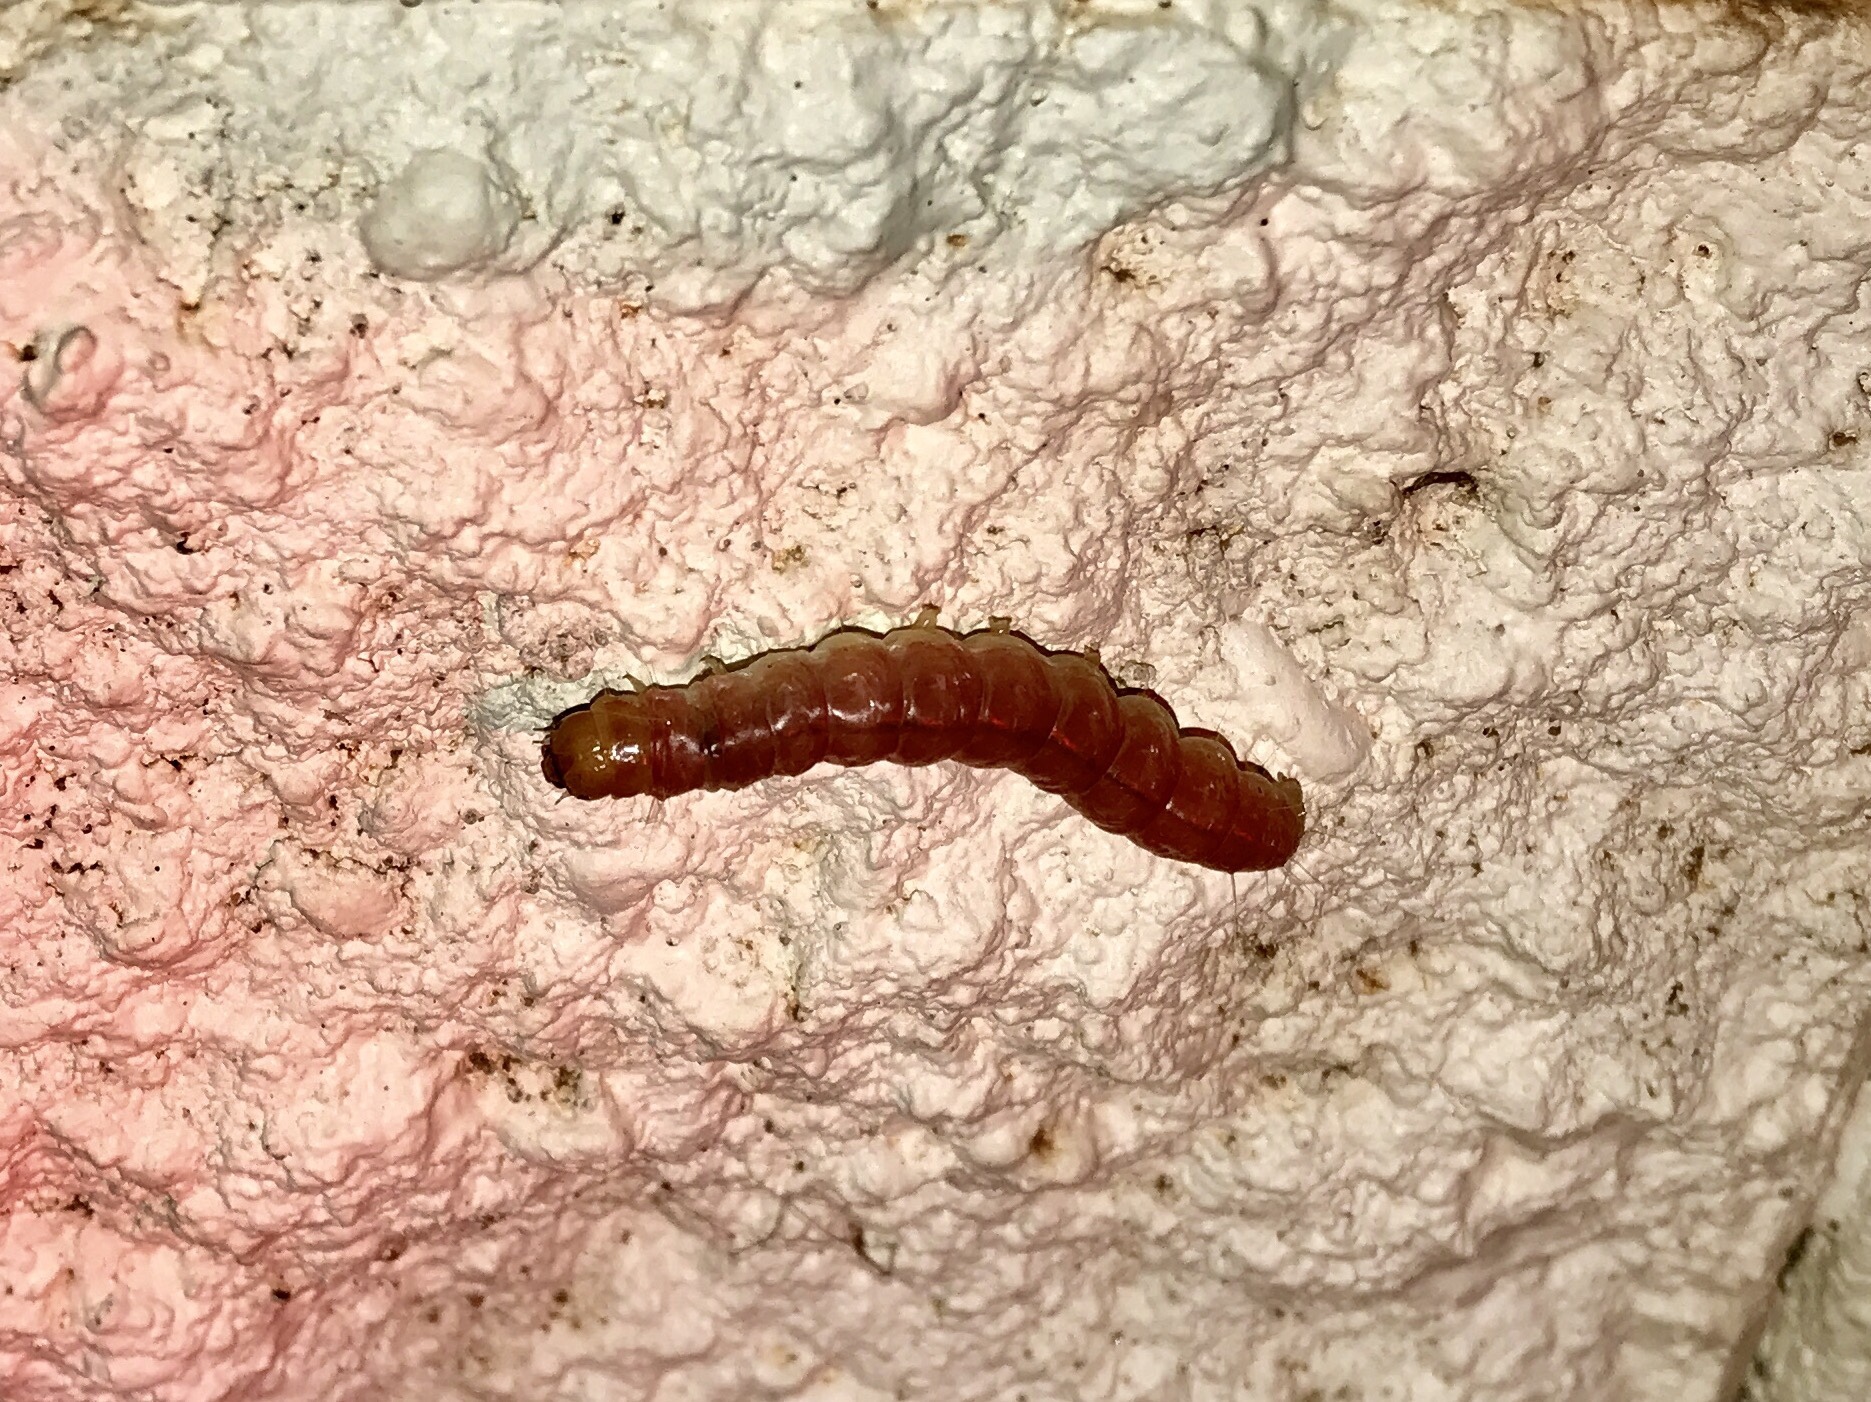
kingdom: Animalia
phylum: Arthropoda
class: Insecta
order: Lepidoptera
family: Erebidae
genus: Litoprosopus
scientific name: Litoprosopus coachella
